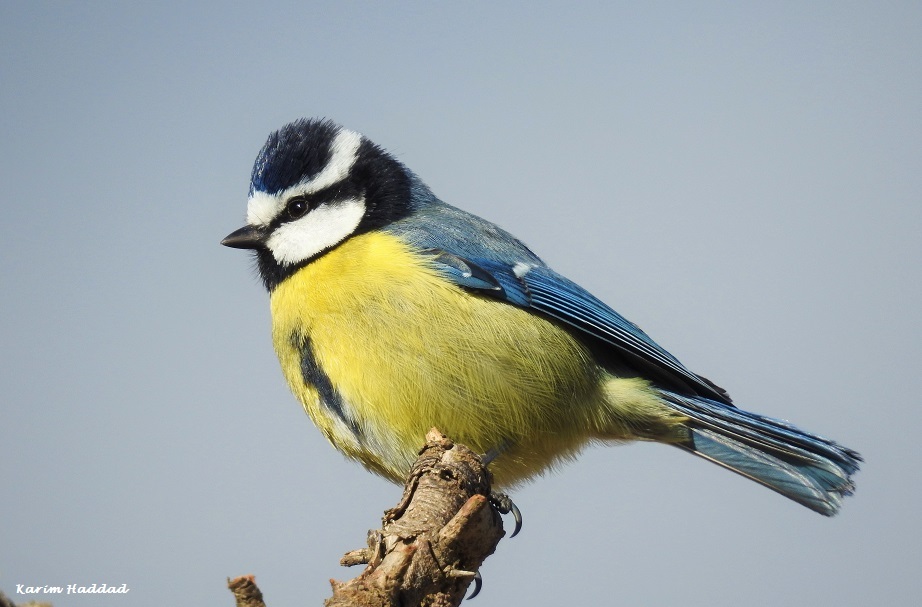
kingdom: Animalia
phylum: Chordata
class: Aves
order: Passeriformes
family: Paridae
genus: Cyanistes
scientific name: Cyanistes teneriffae
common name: African blue tit
